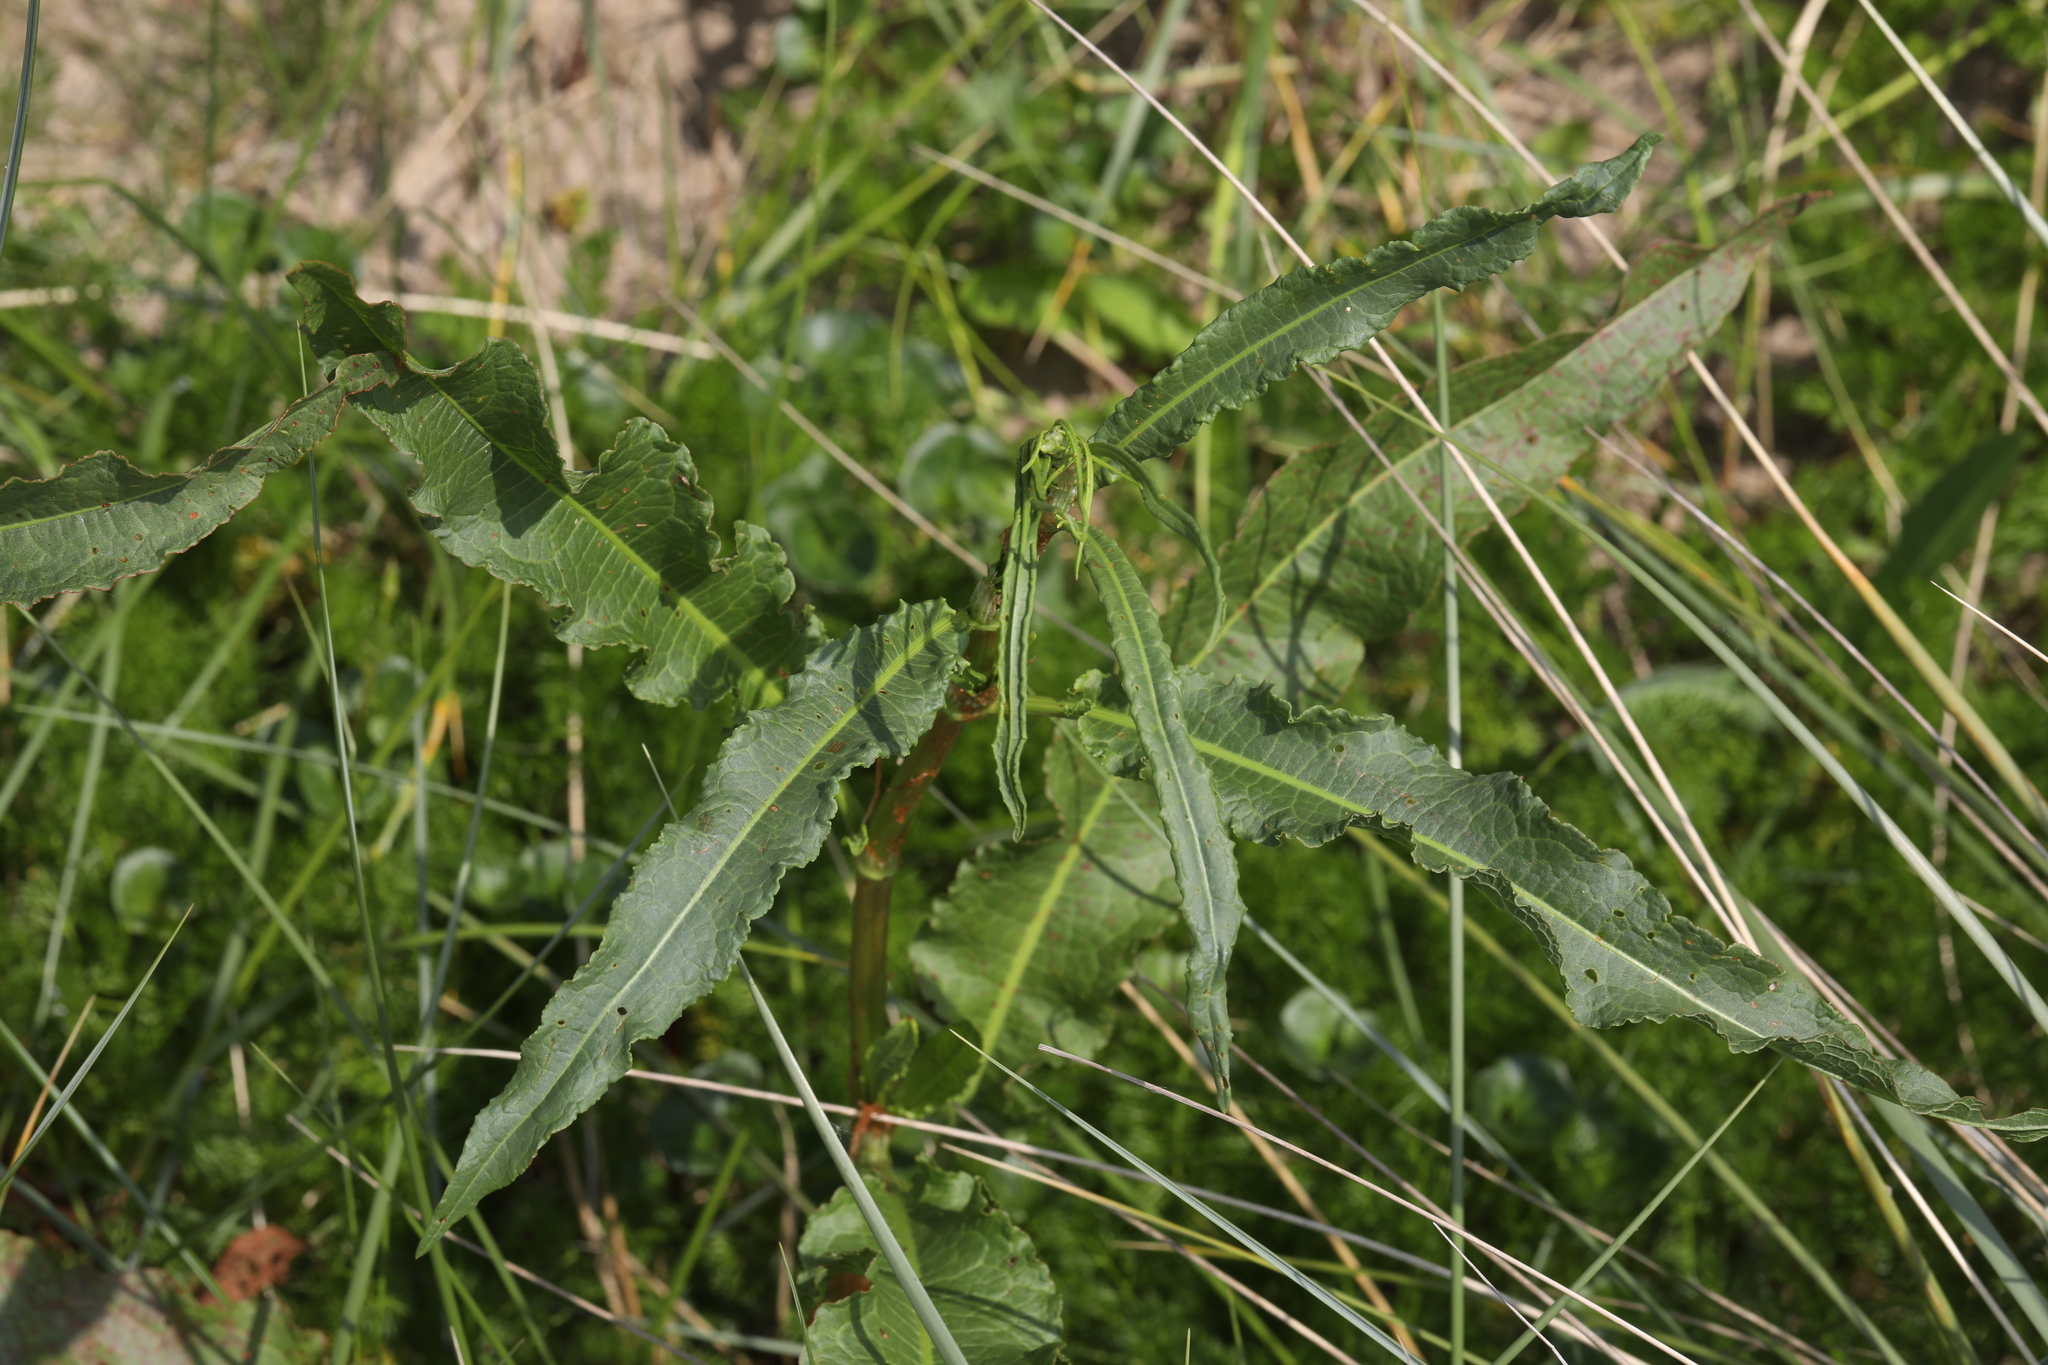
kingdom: Plantae
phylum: Tracheophyta
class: Magnoliopsida
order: Caryophyllales
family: Polygonaceae
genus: Rumex
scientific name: Rumex crispus
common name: Curled dock
